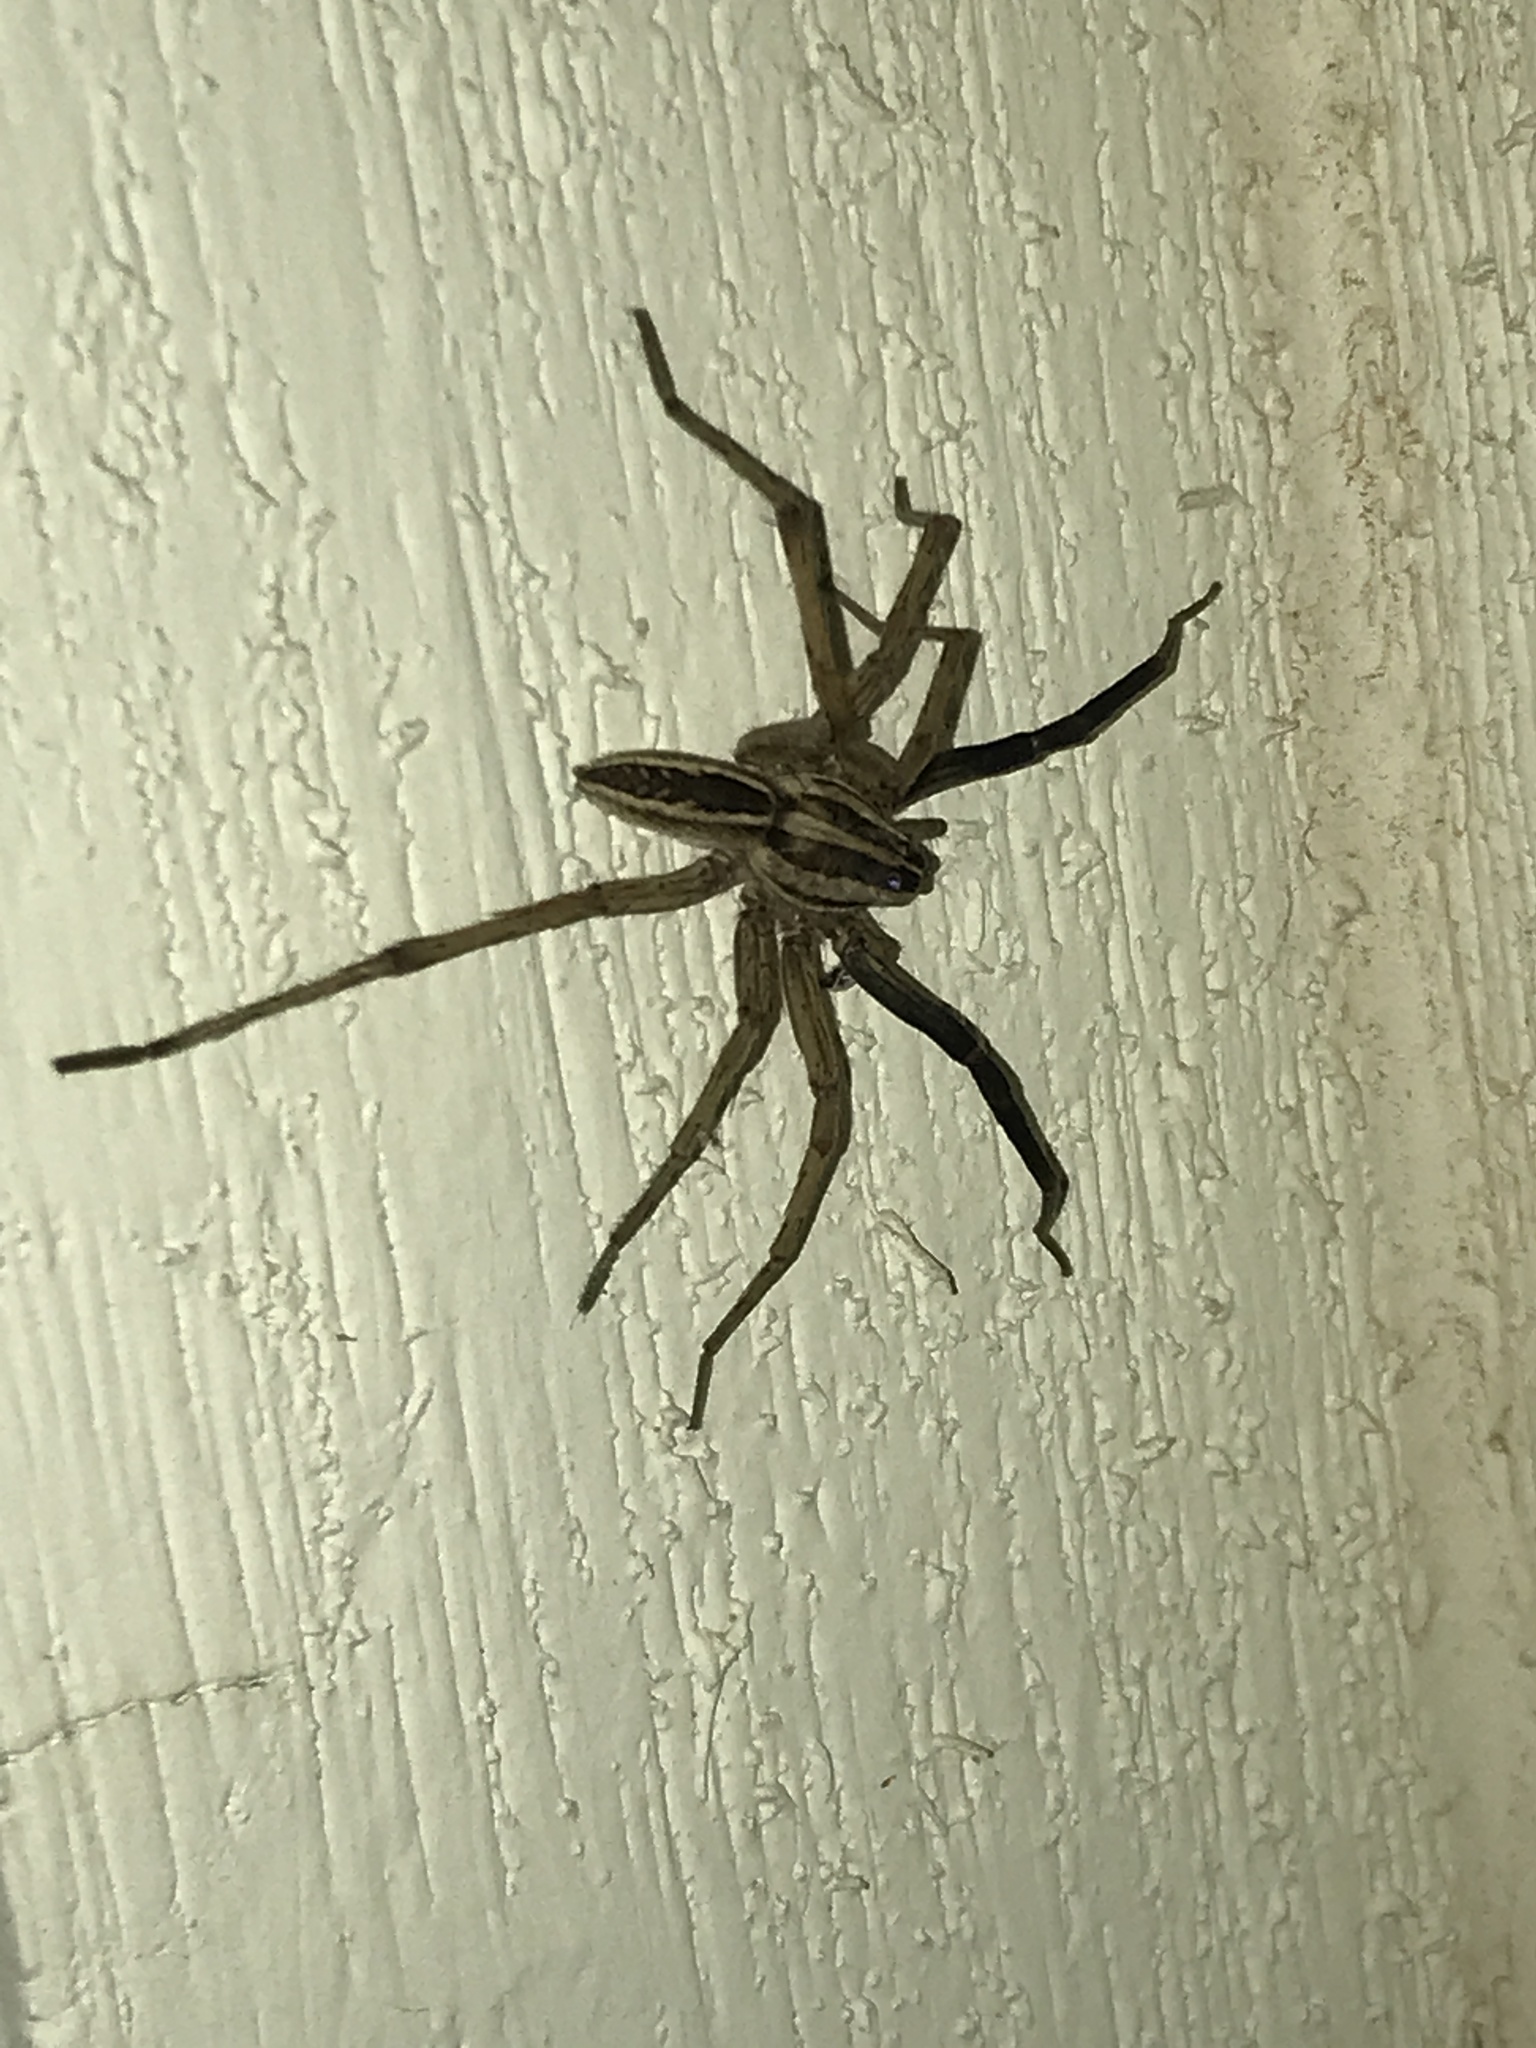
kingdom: Animalia
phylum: Arthropoda
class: Arachnida
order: Araneae
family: Lycosidae
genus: Rabidosa
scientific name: Rabidosa rabida
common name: Rabid wolf spider
